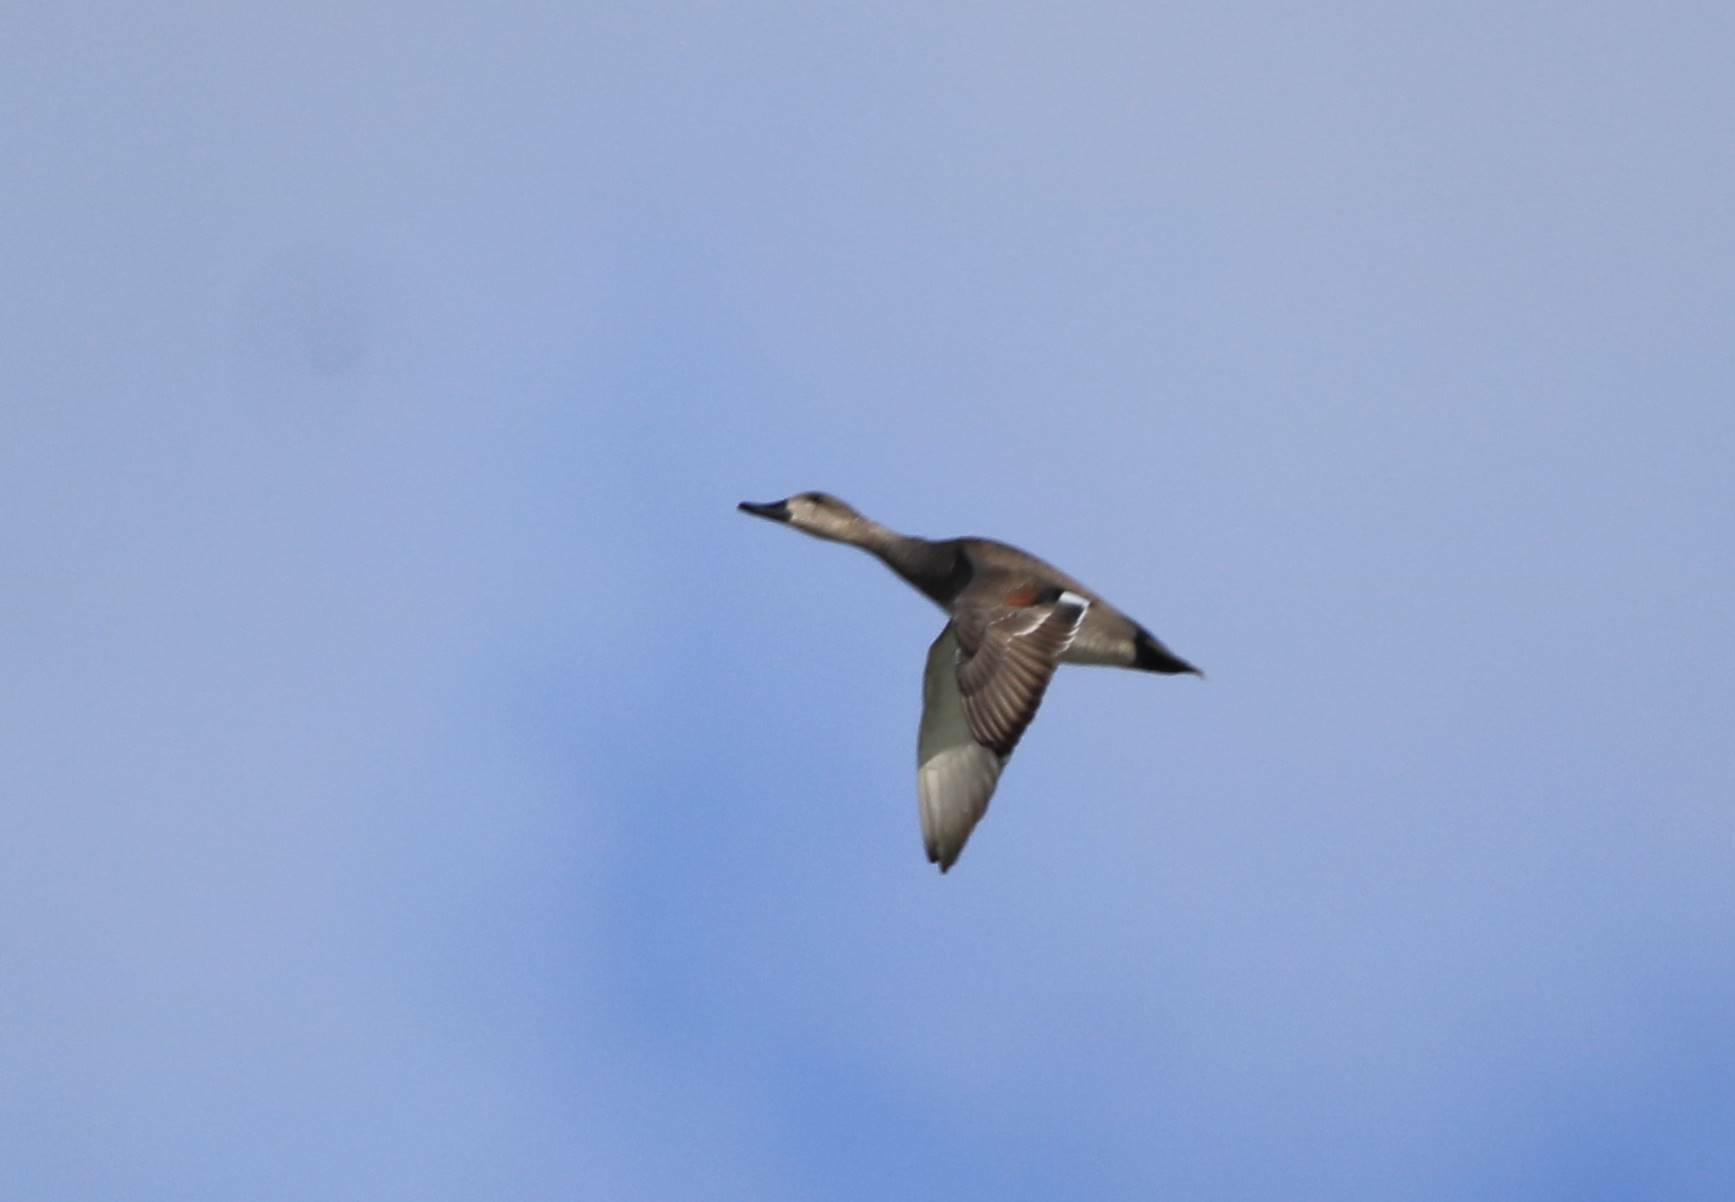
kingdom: Animalia
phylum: Chordata
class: Aves
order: Anseriformes
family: Anatidae
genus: Mareca
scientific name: Mareca penelope
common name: Eurasian wigeon
